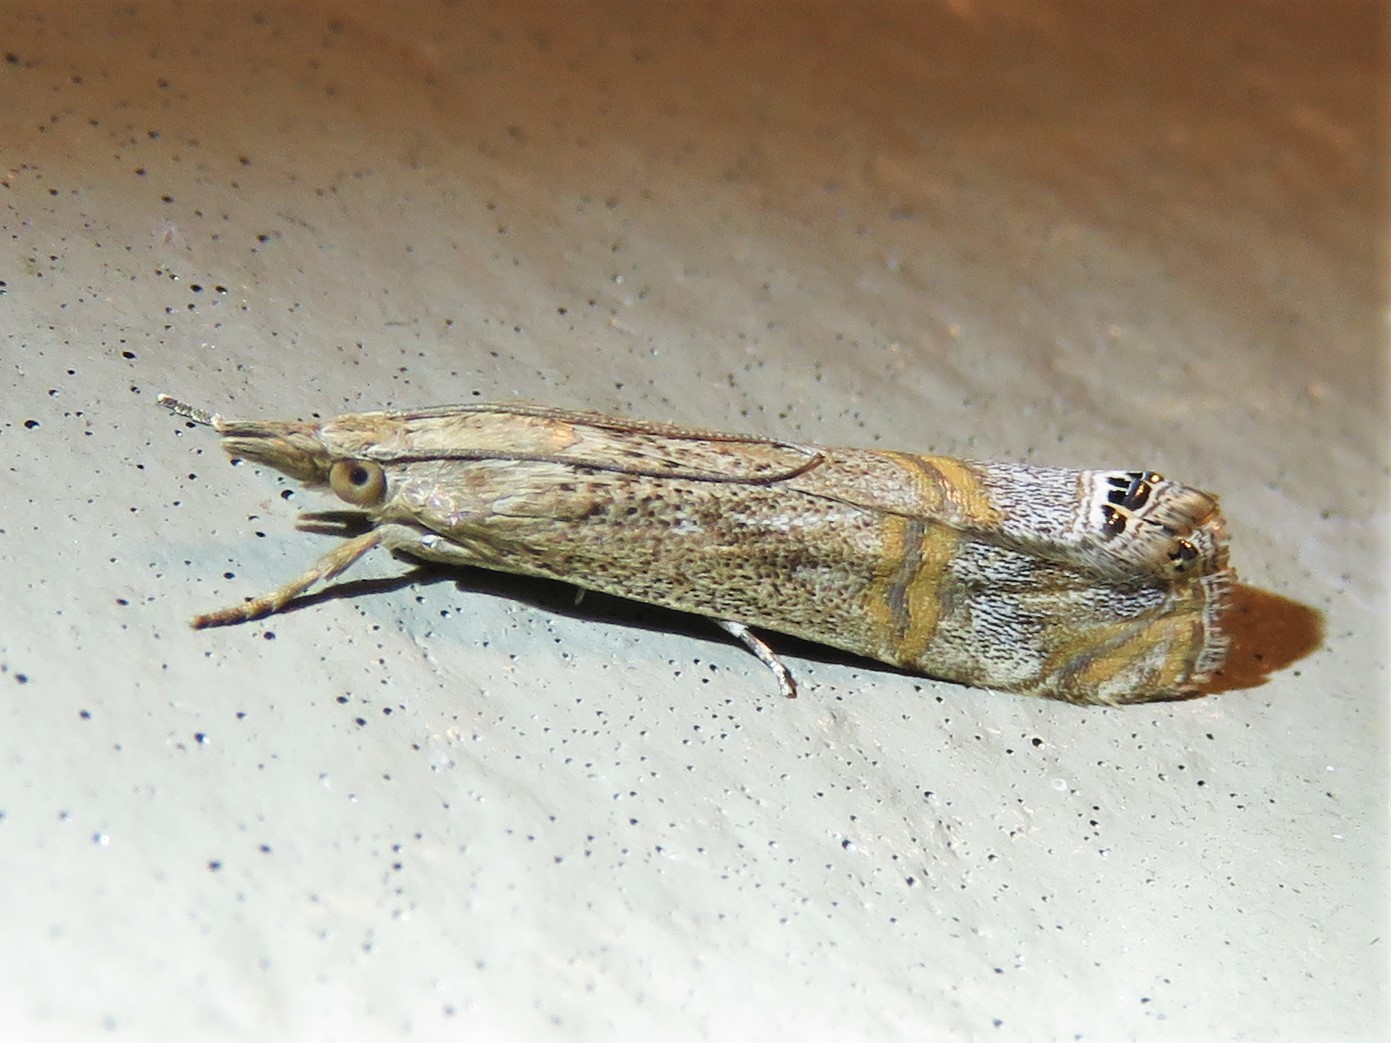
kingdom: Animalia
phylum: Arthropoda
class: Insecta
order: Lepidoptera
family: Crambidae
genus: Euchromius
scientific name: Euchromius ocellea
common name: Necklace veneer moth
